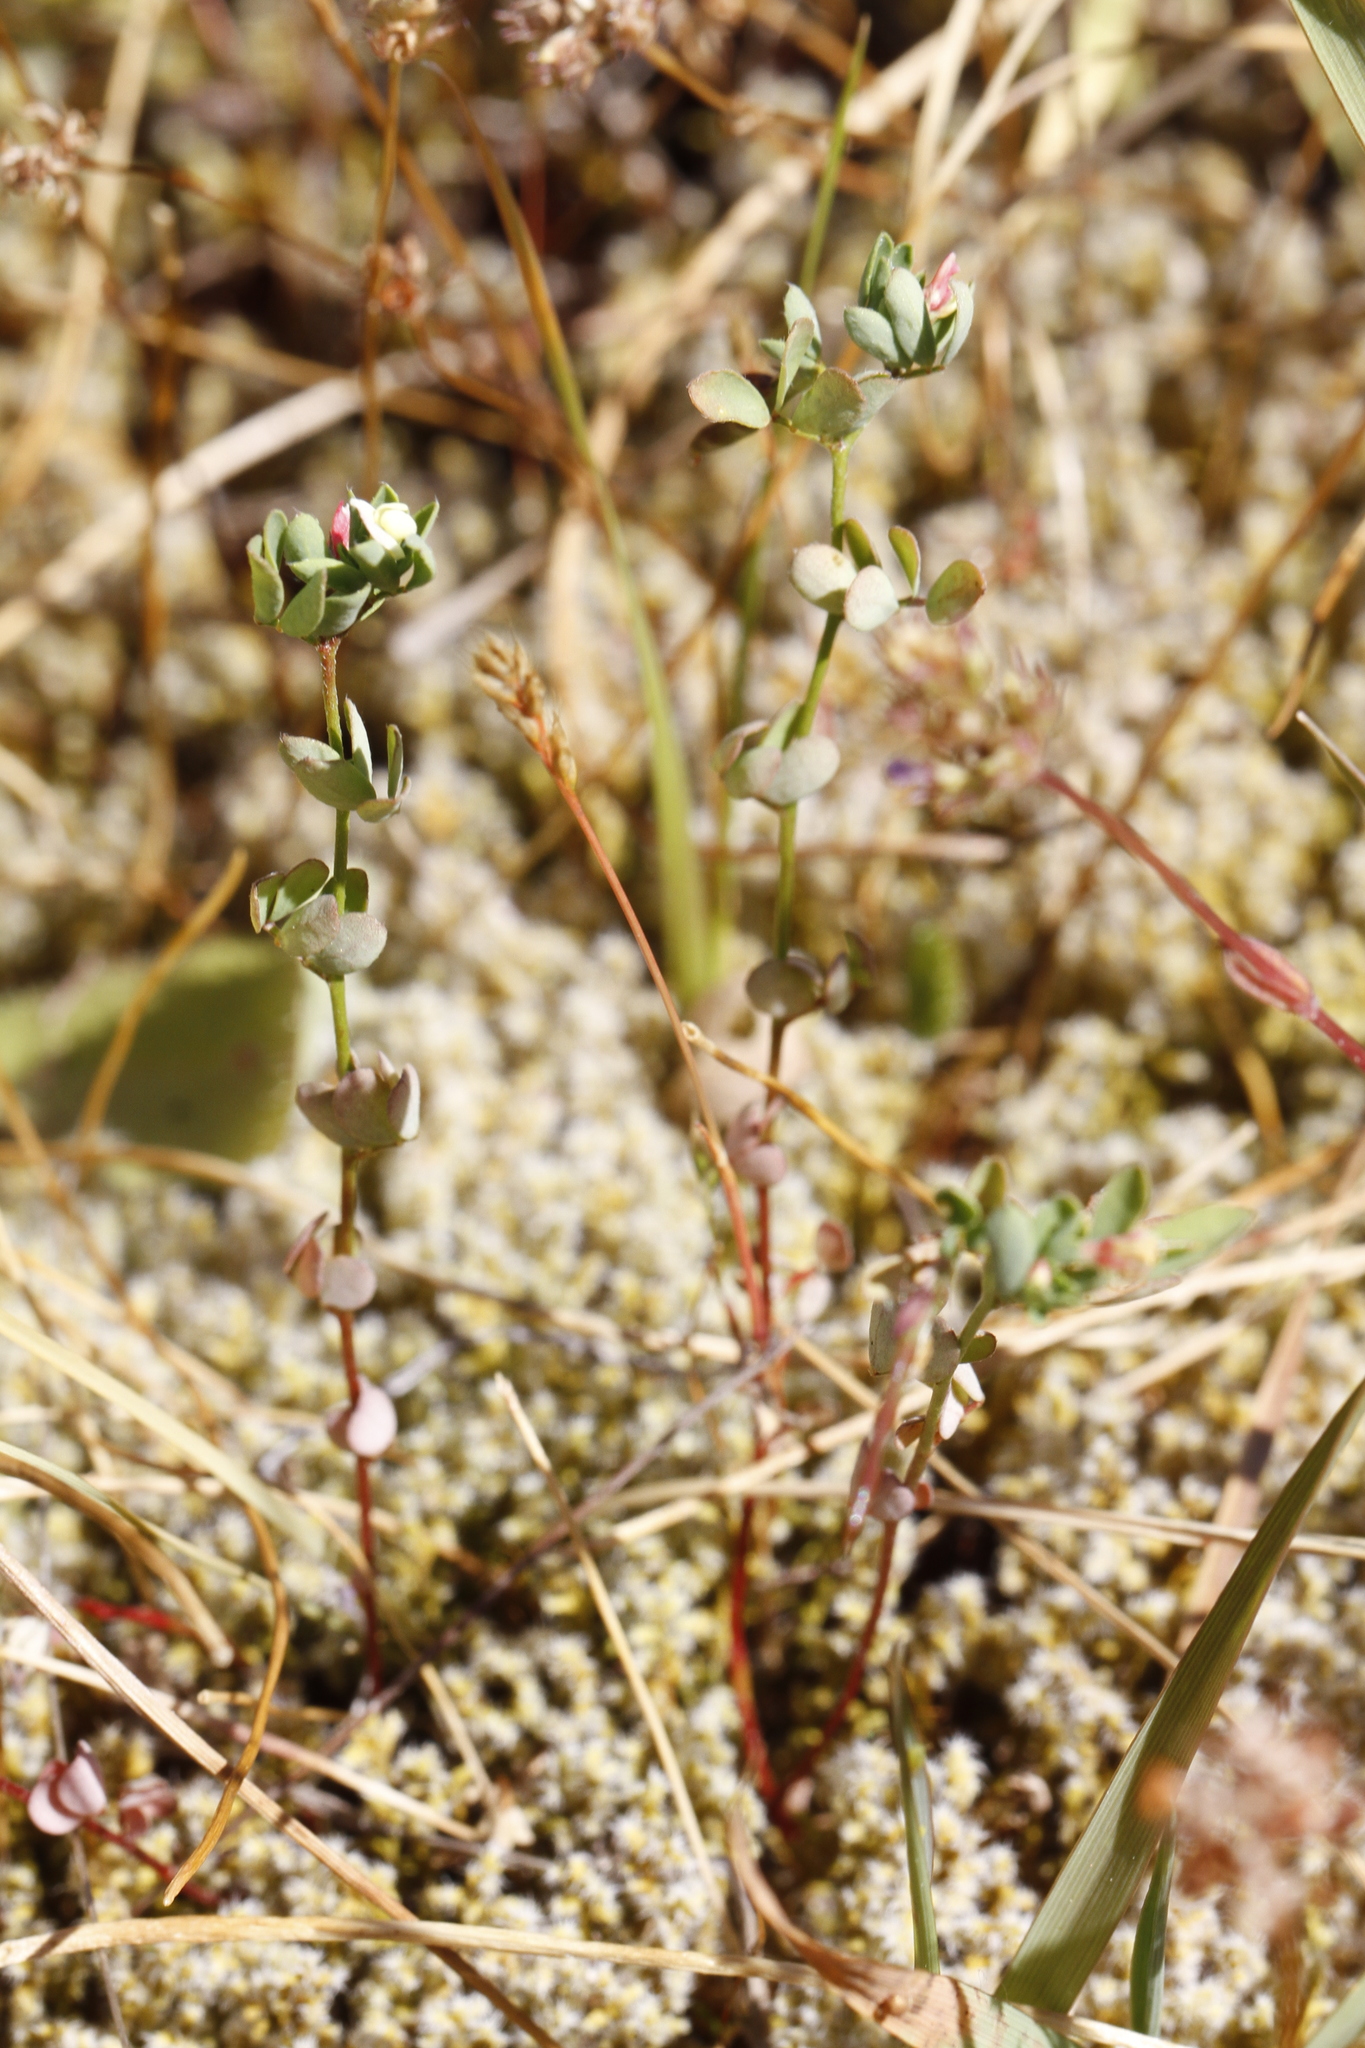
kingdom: Plantae
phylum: Tracheophyta
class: Magnoliopsida
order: Fabales
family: Fabaceae
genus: Acmispon
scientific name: Acmispon parviflorus
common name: Desert deer-vetch
